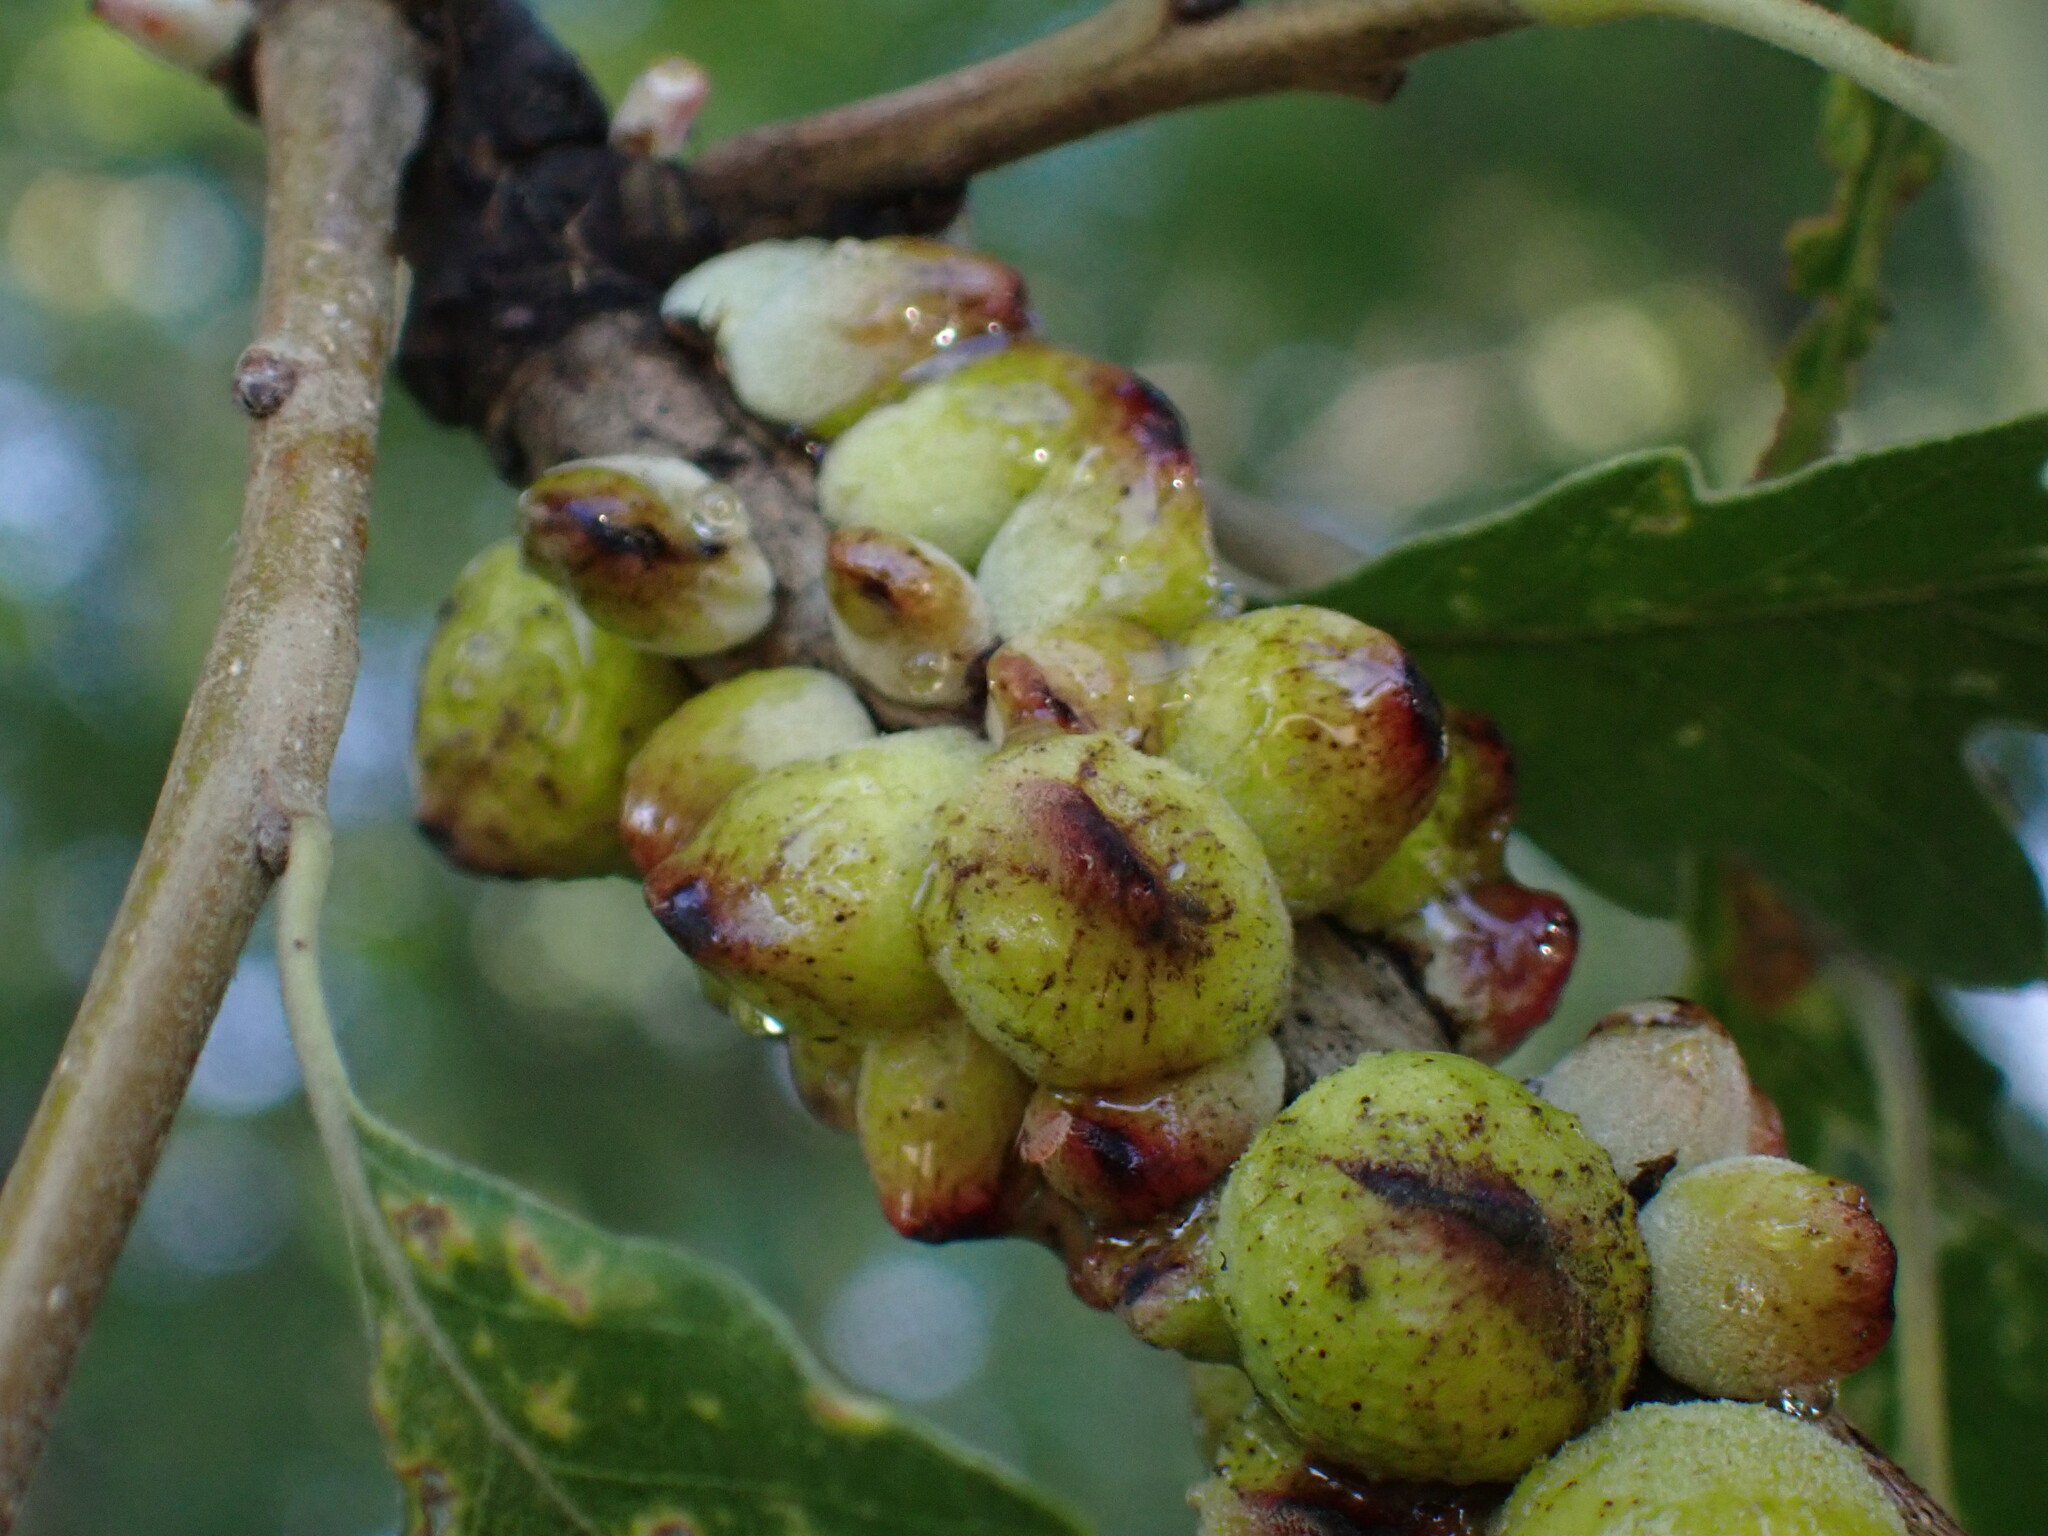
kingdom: Animalia
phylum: Arthropoda
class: Insecta
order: Hymenoptera
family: Cynipidae
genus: Disholcaspis
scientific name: Disholcaspis
